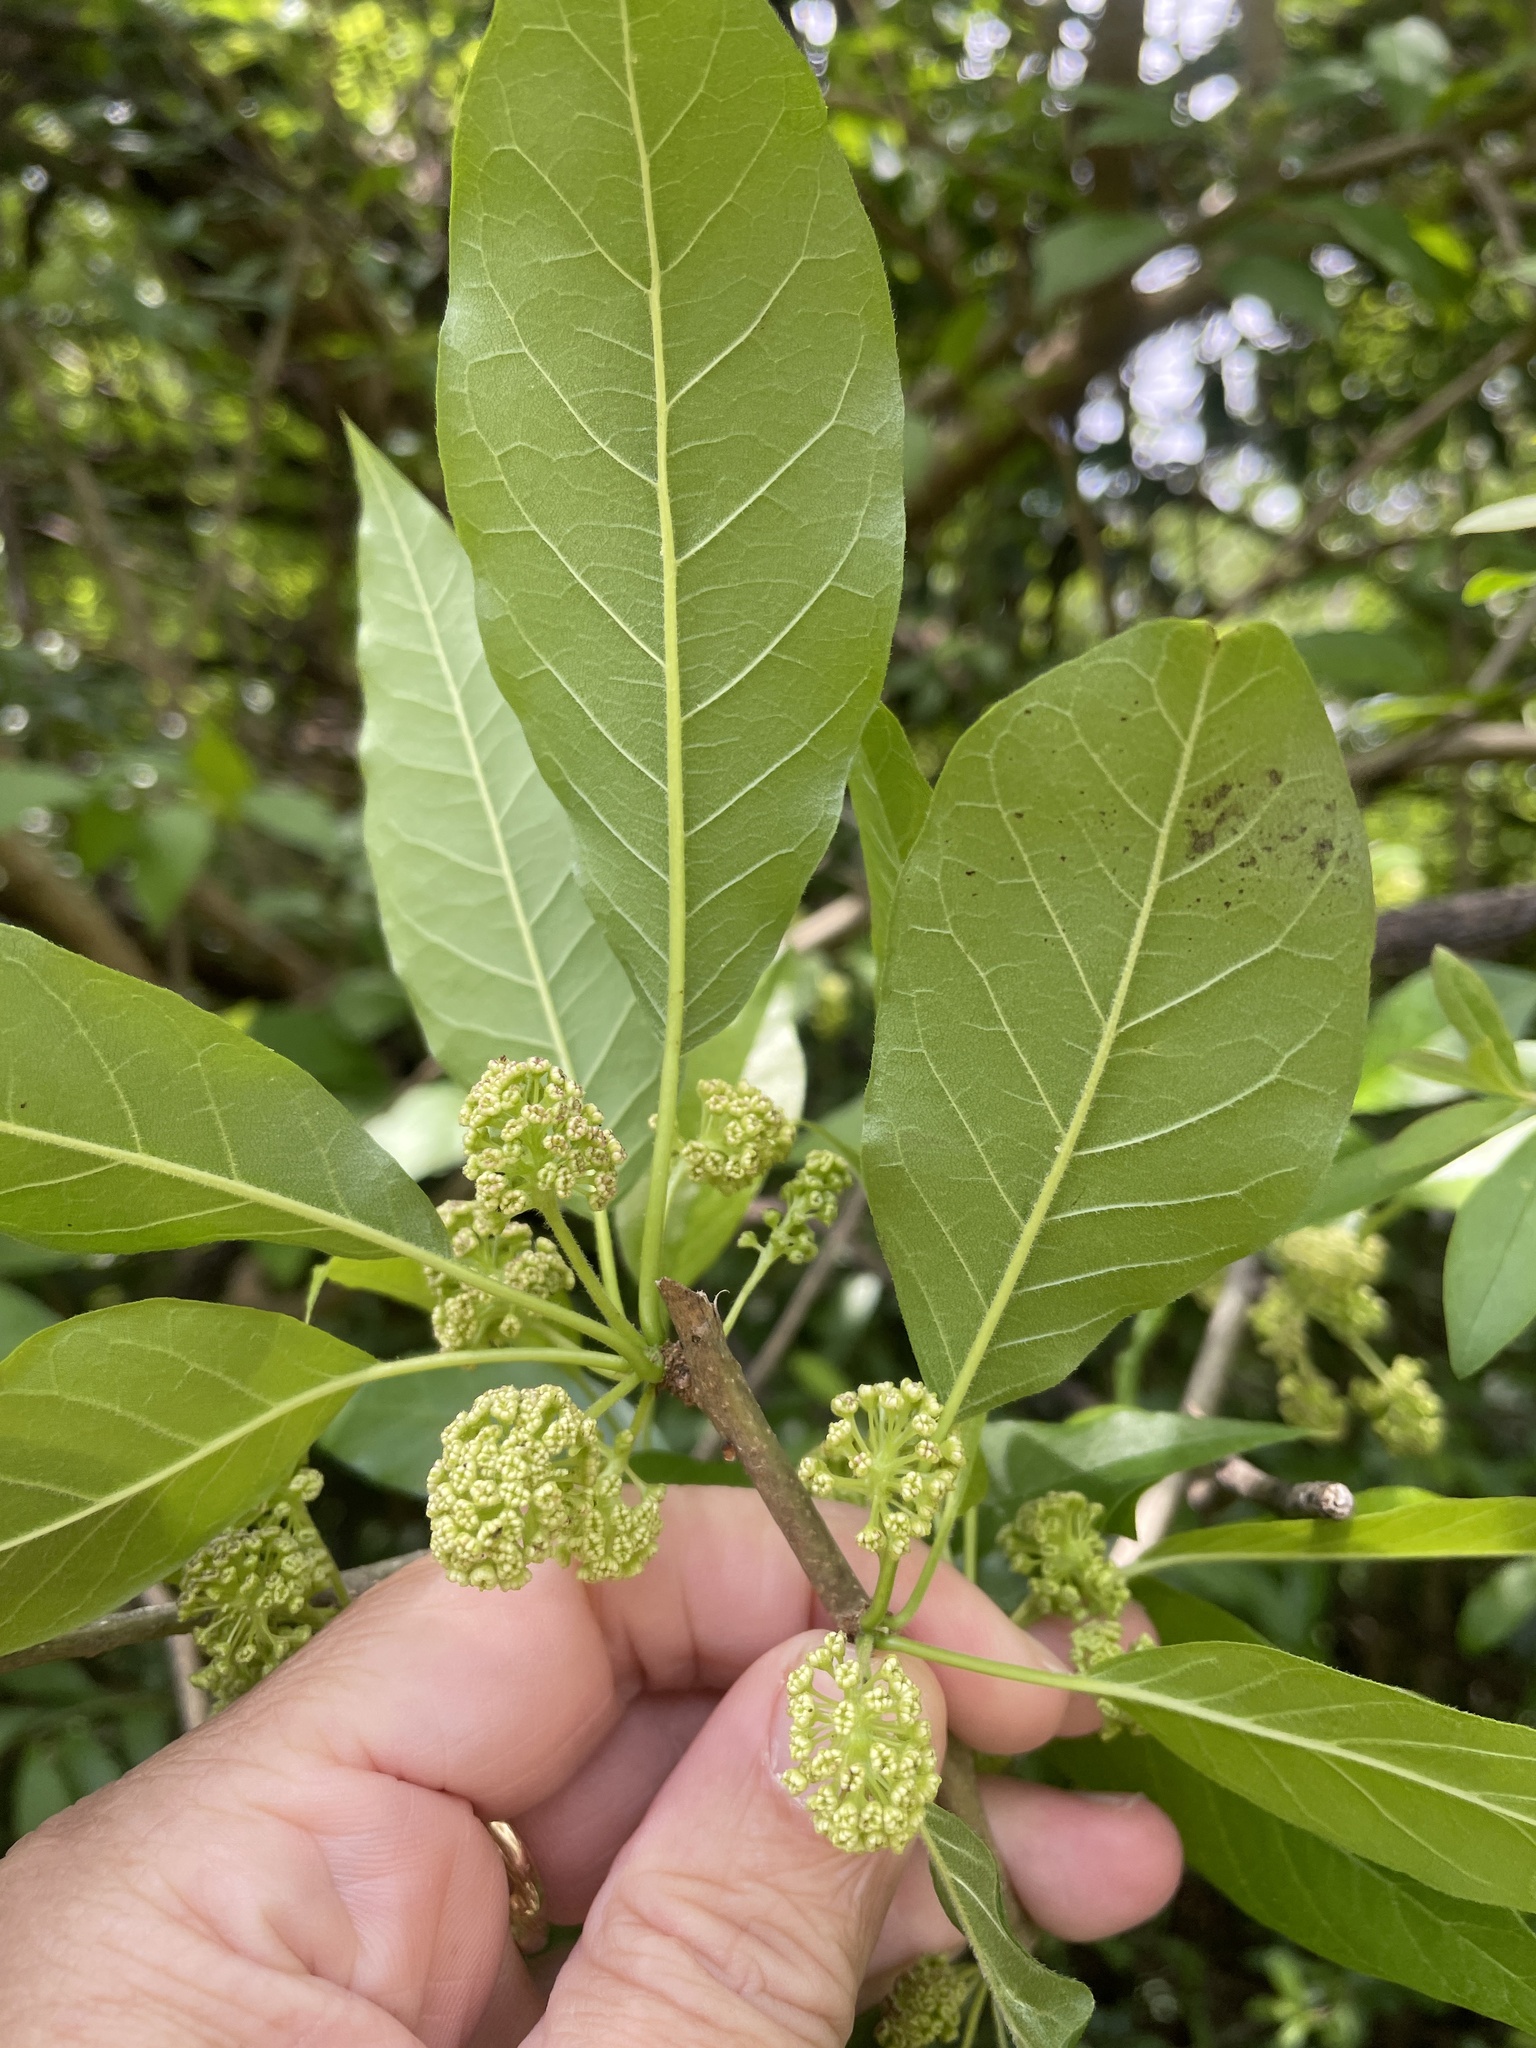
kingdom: Plantae
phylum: Tracheophyta
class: Magnoliopsida
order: Rosales
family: Moraceae
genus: Maclura
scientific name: Maclura pomifera
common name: Osage-orange
